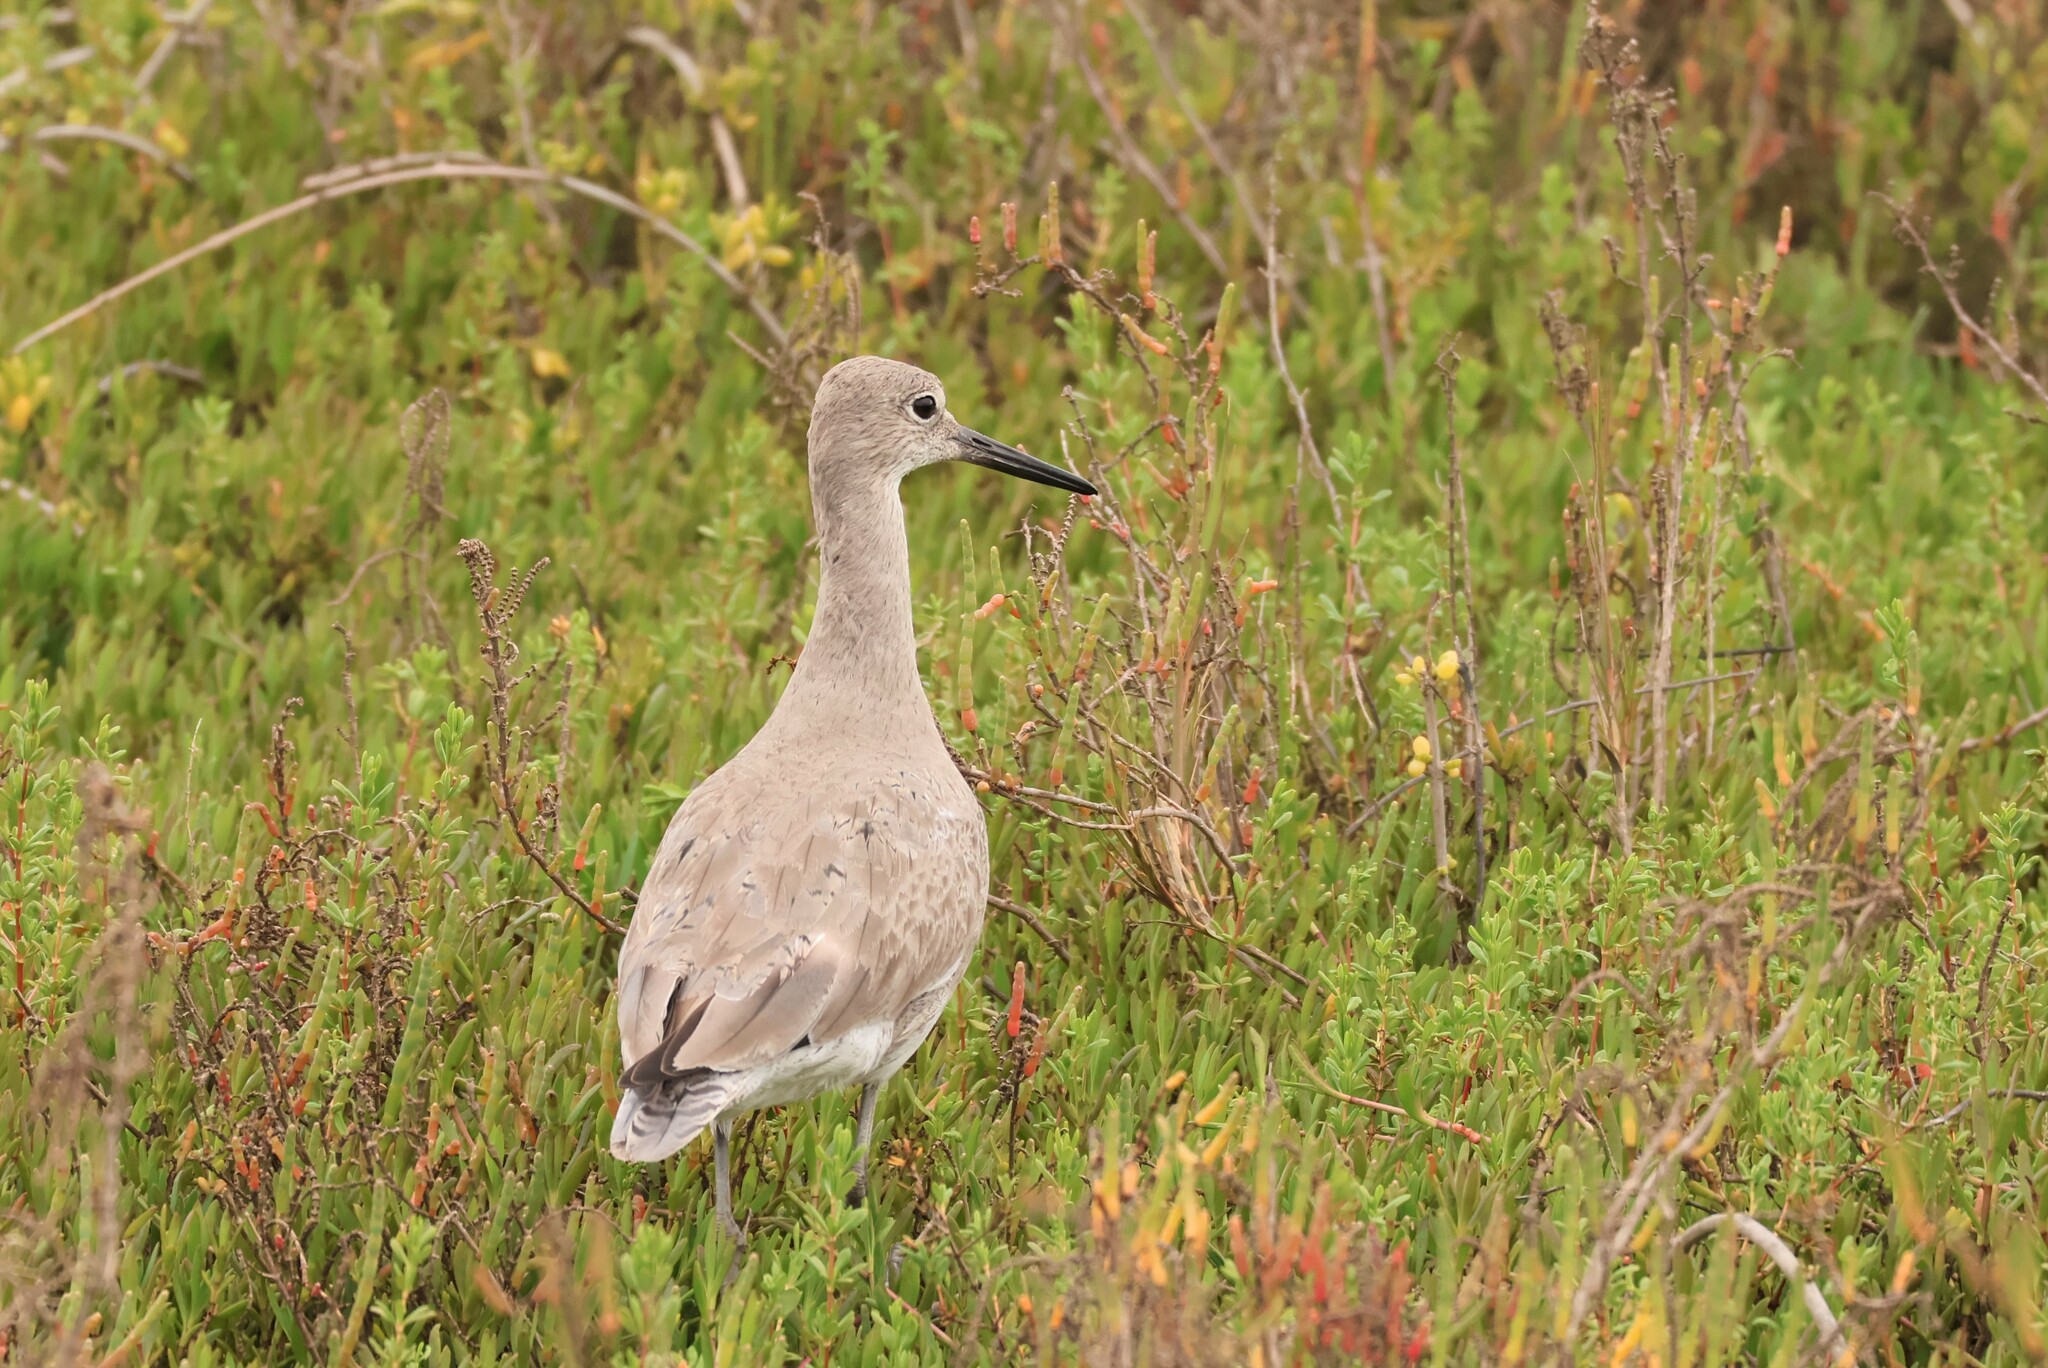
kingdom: Animalia
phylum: Chordata
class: Aves
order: Charadriiformes
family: Scolopacidae
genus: Tringa
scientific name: Tringa semipalmata
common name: Willet
